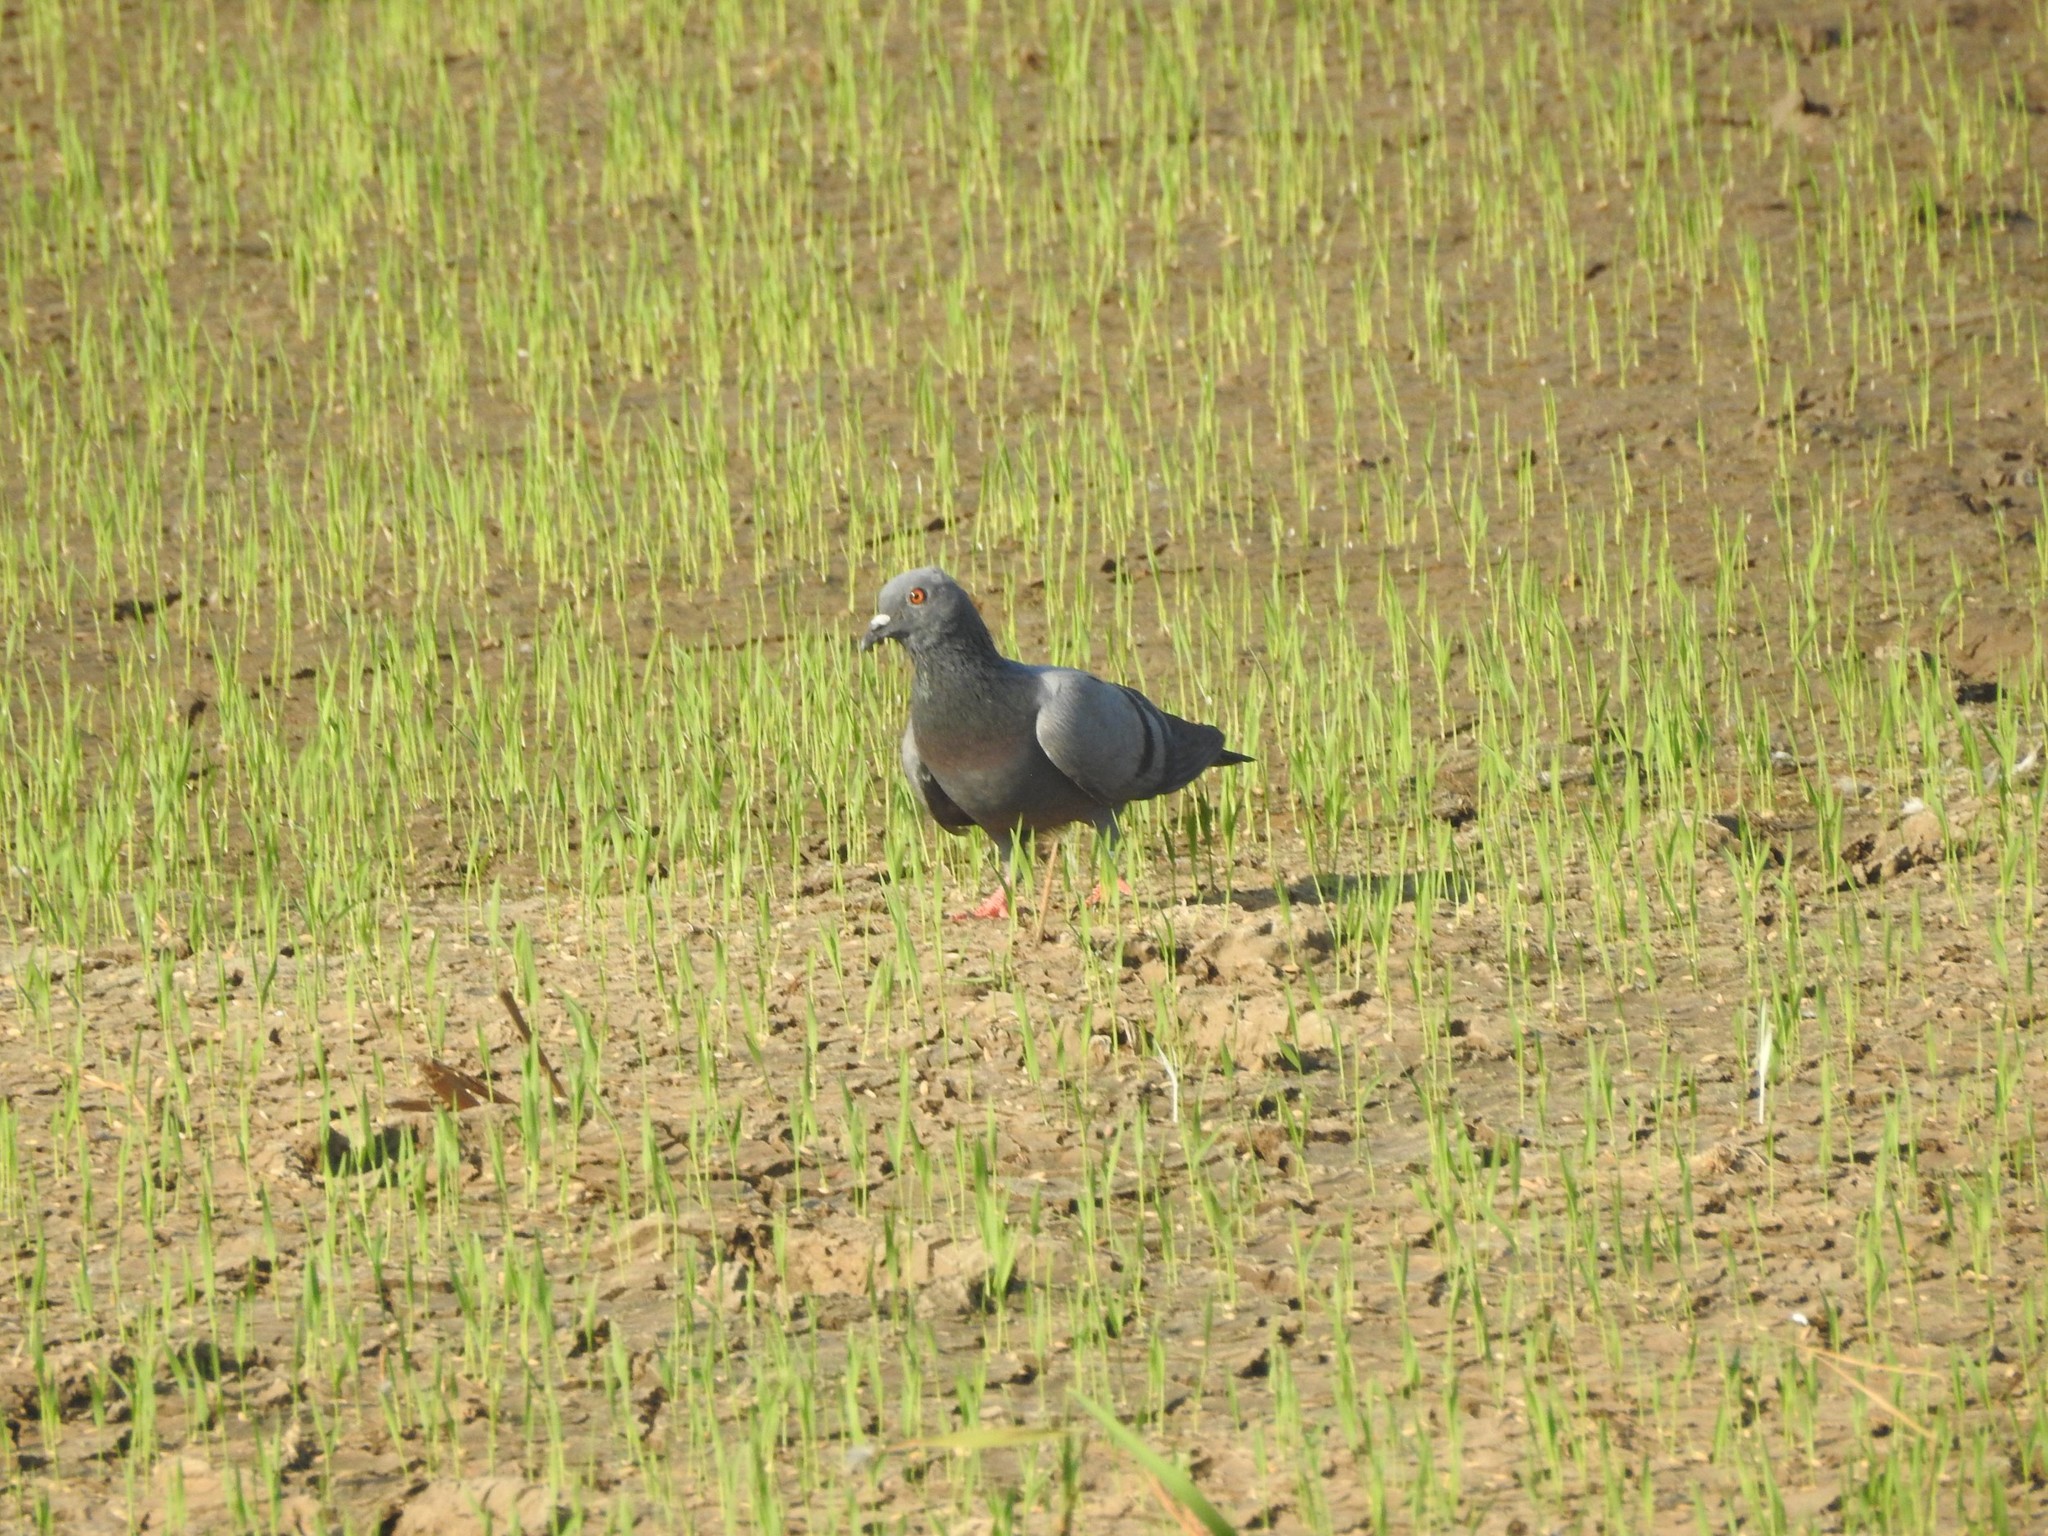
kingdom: Animalia
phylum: Chordata
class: Aves
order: Columbiformes
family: Columbidae
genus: Columba
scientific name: Columba livia
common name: Rock pigeon
